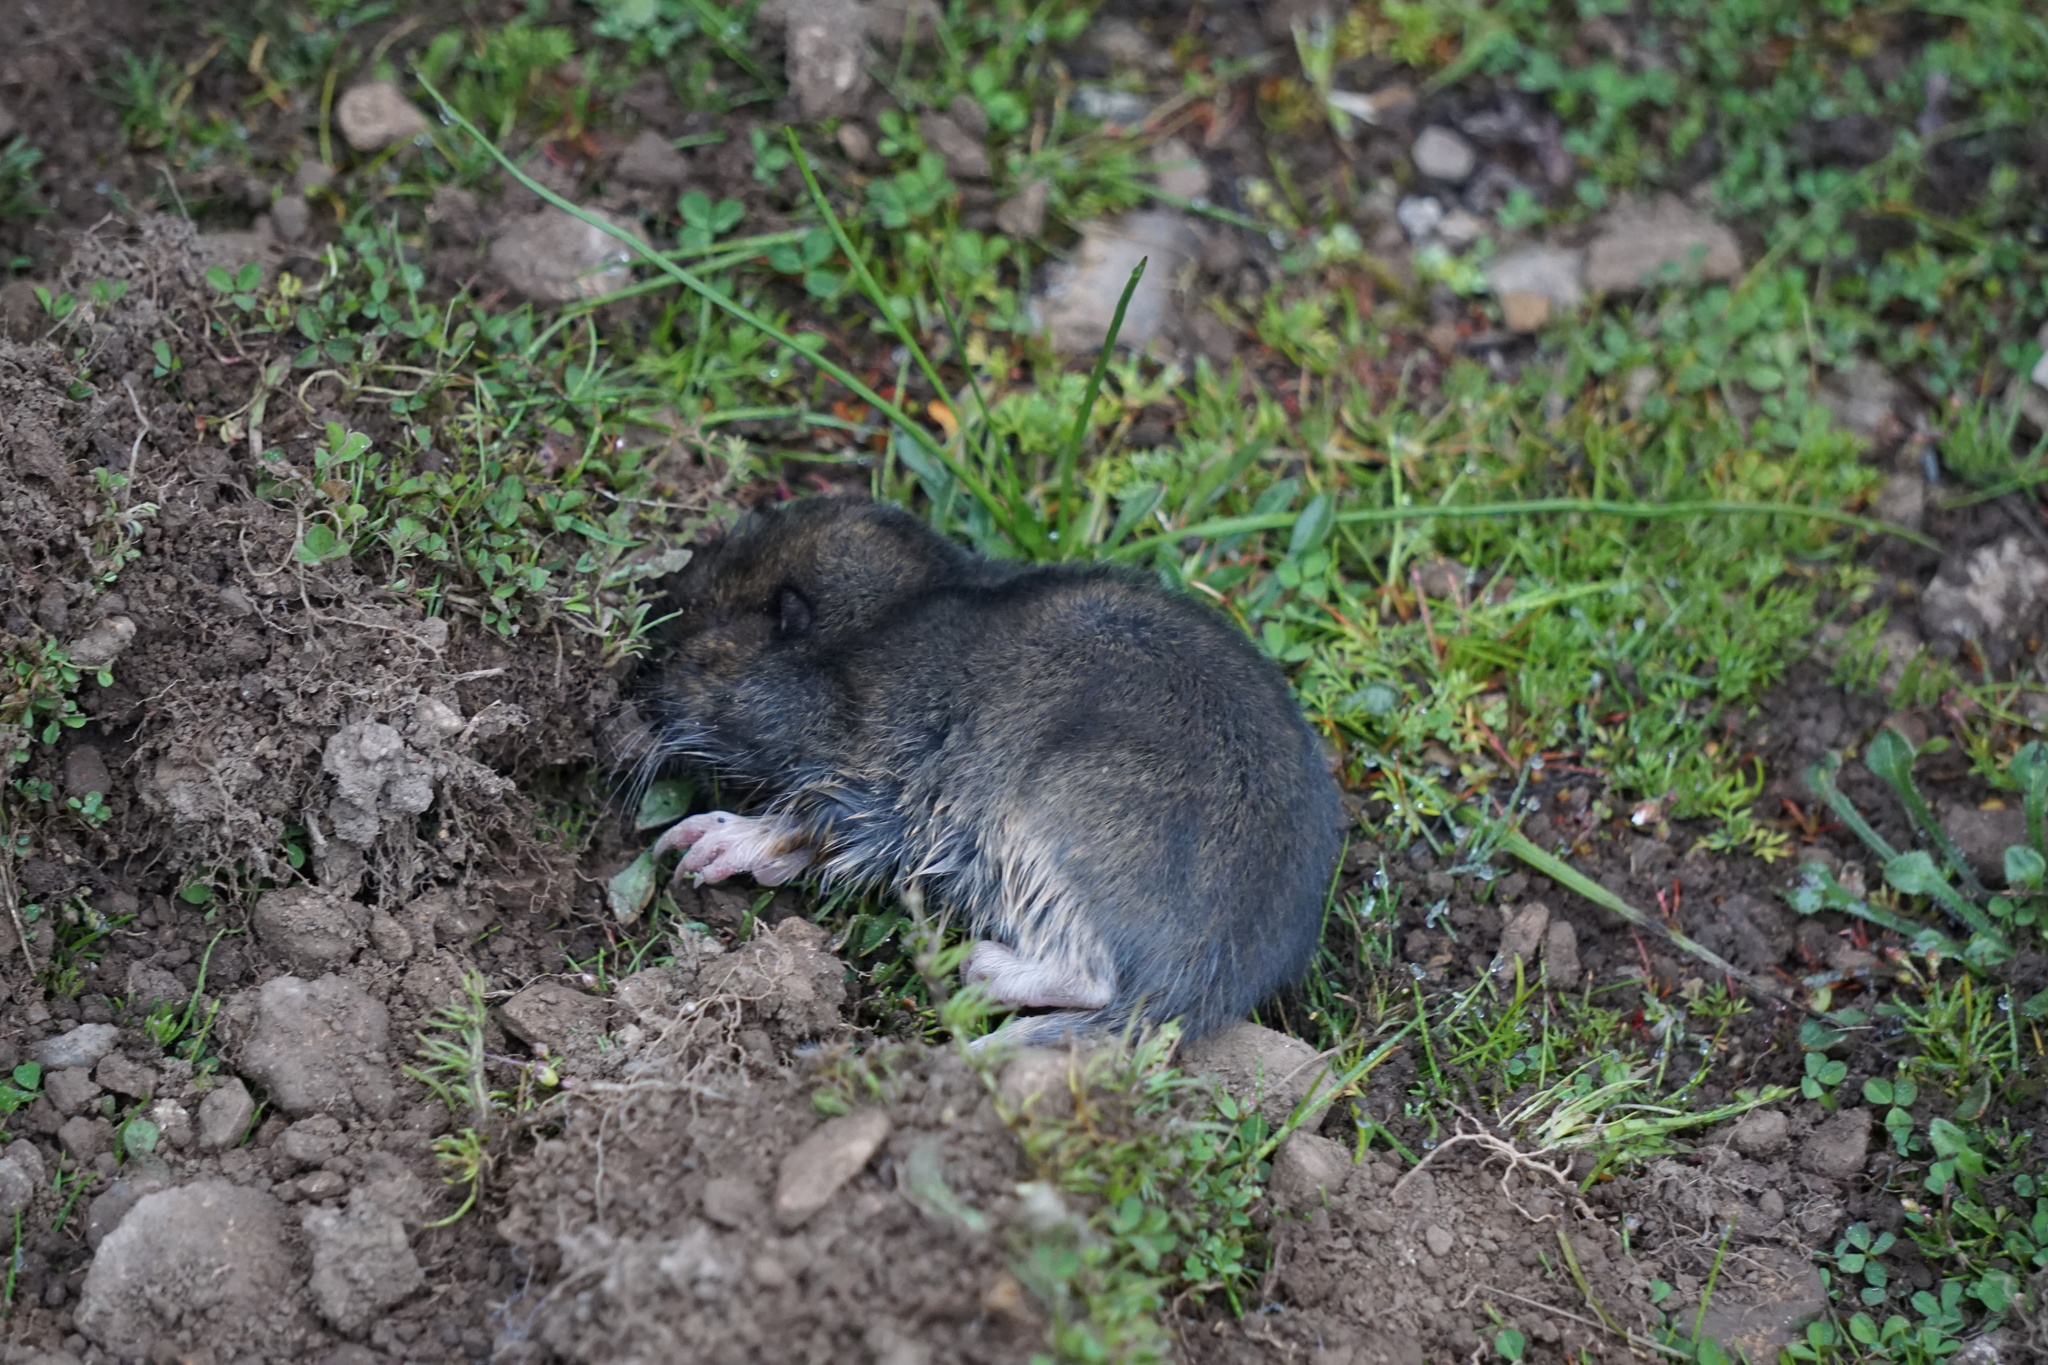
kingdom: Animalia
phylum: Chordata
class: Mammalia
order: Rodentia
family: Geomyidae
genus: Thomomys
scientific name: Thomomys bottae
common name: Botta's pocket gopher
